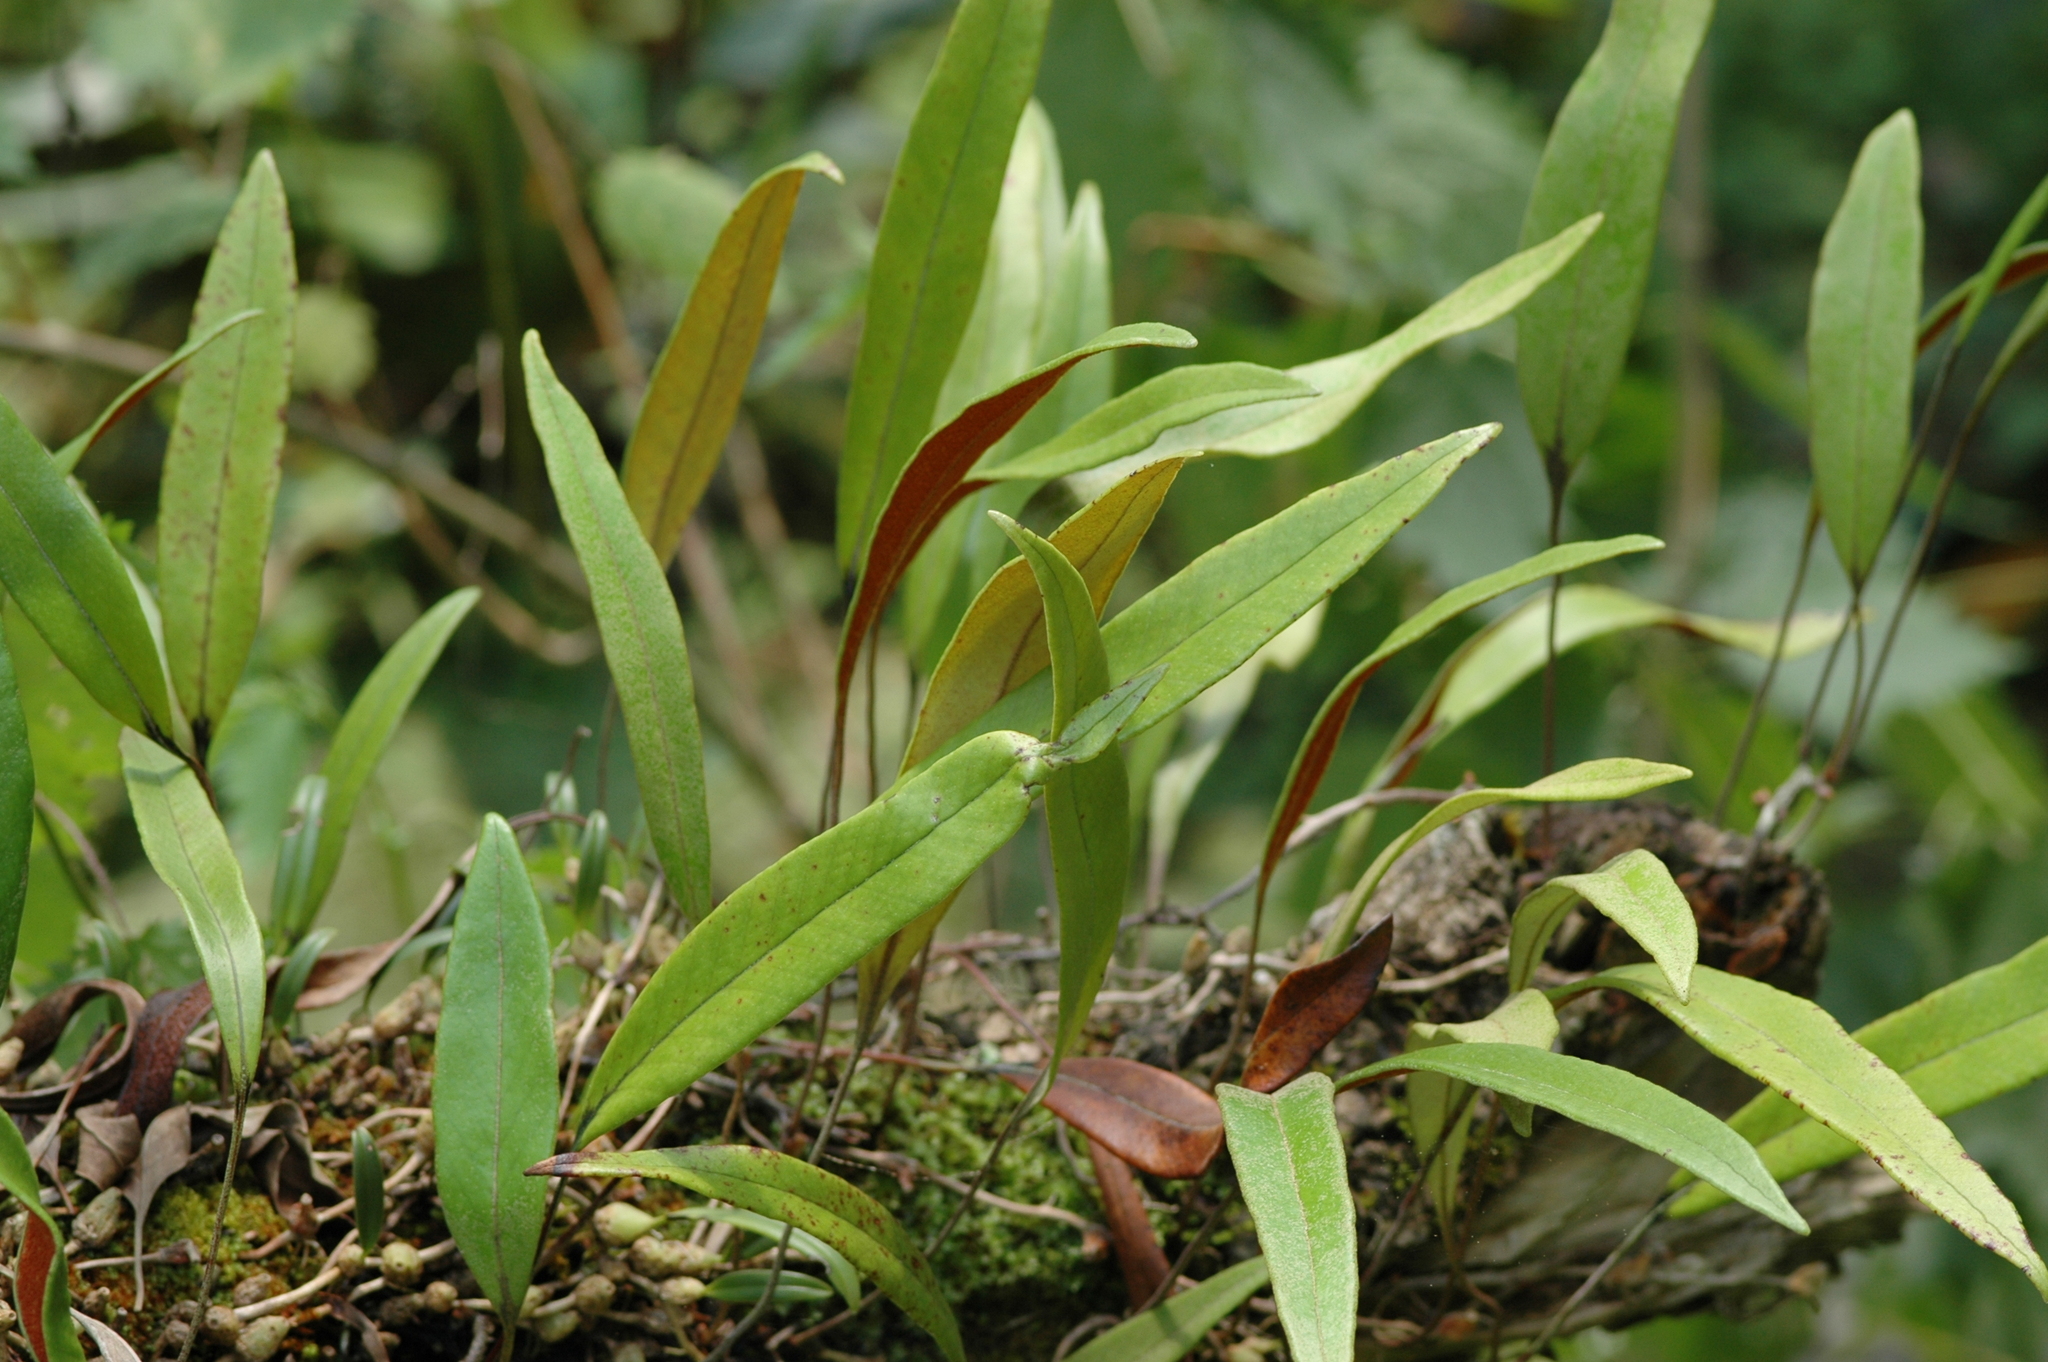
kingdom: Plantae
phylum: Tracheophyta
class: Polypodiopsida
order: Polypodiales
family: Polypodiaceae
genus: Pyrrosia
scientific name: Pyrrosia lingua
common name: Felt fern
